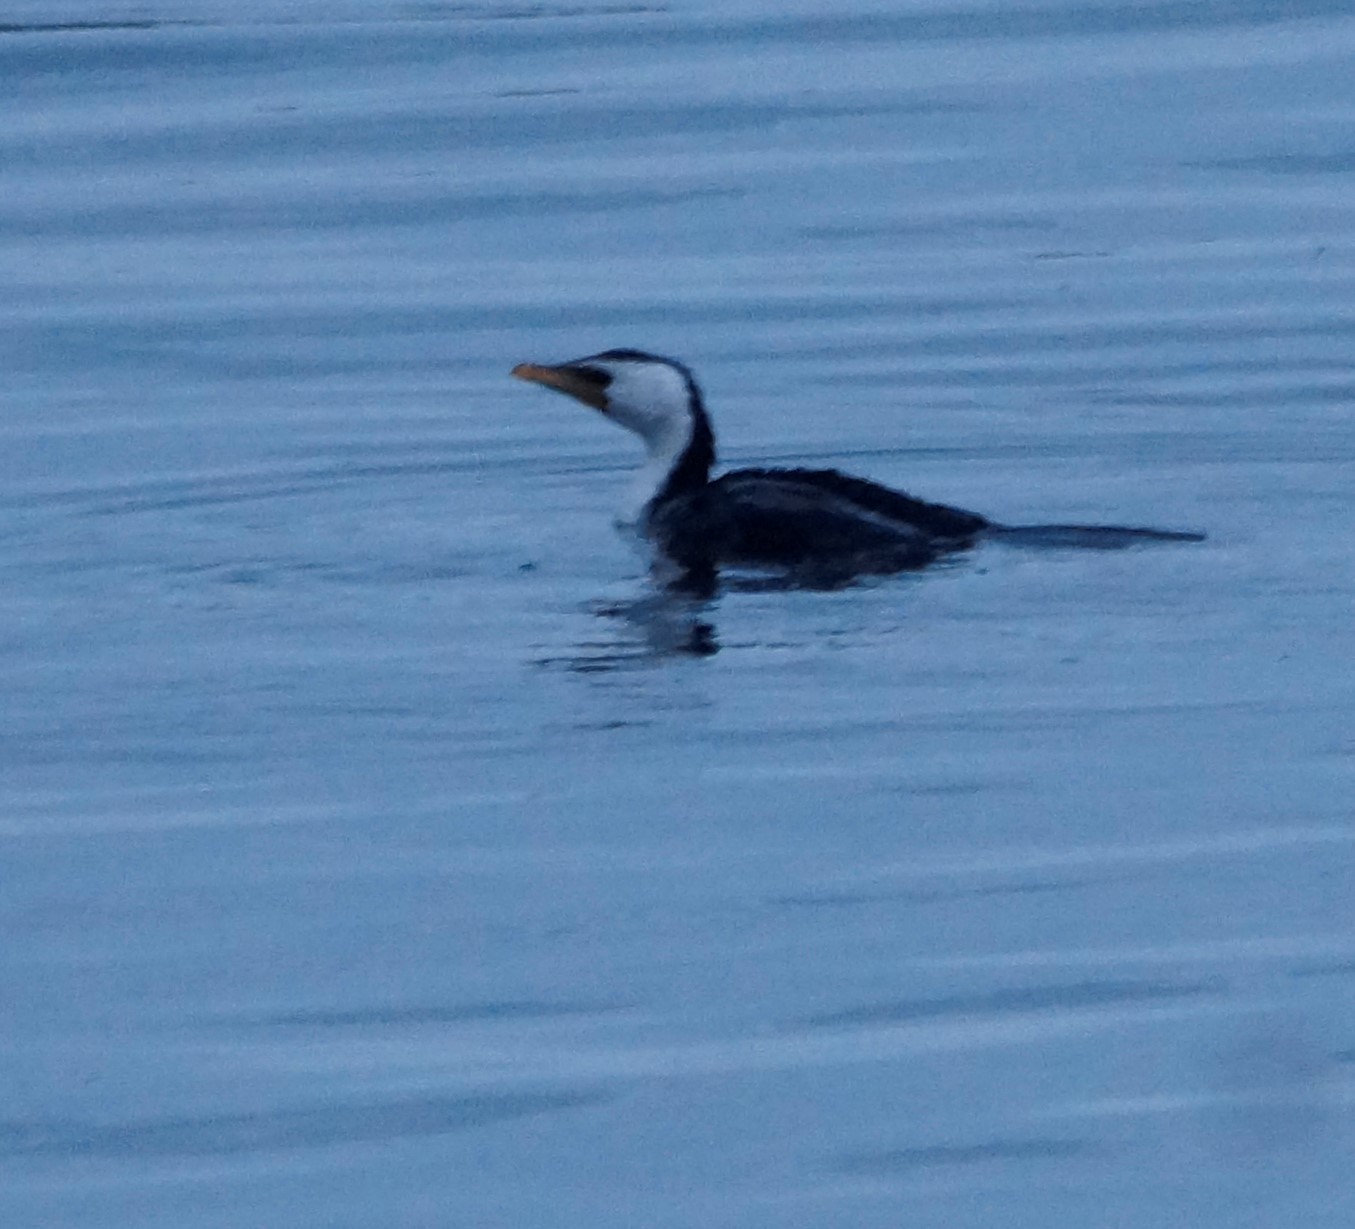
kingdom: Animalia
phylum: Chordata
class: Aves
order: Suliformes
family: Phalacrocoracidae
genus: Microcarbo
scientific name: Microcarbo melanoleucos
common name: Little pied cormorant
